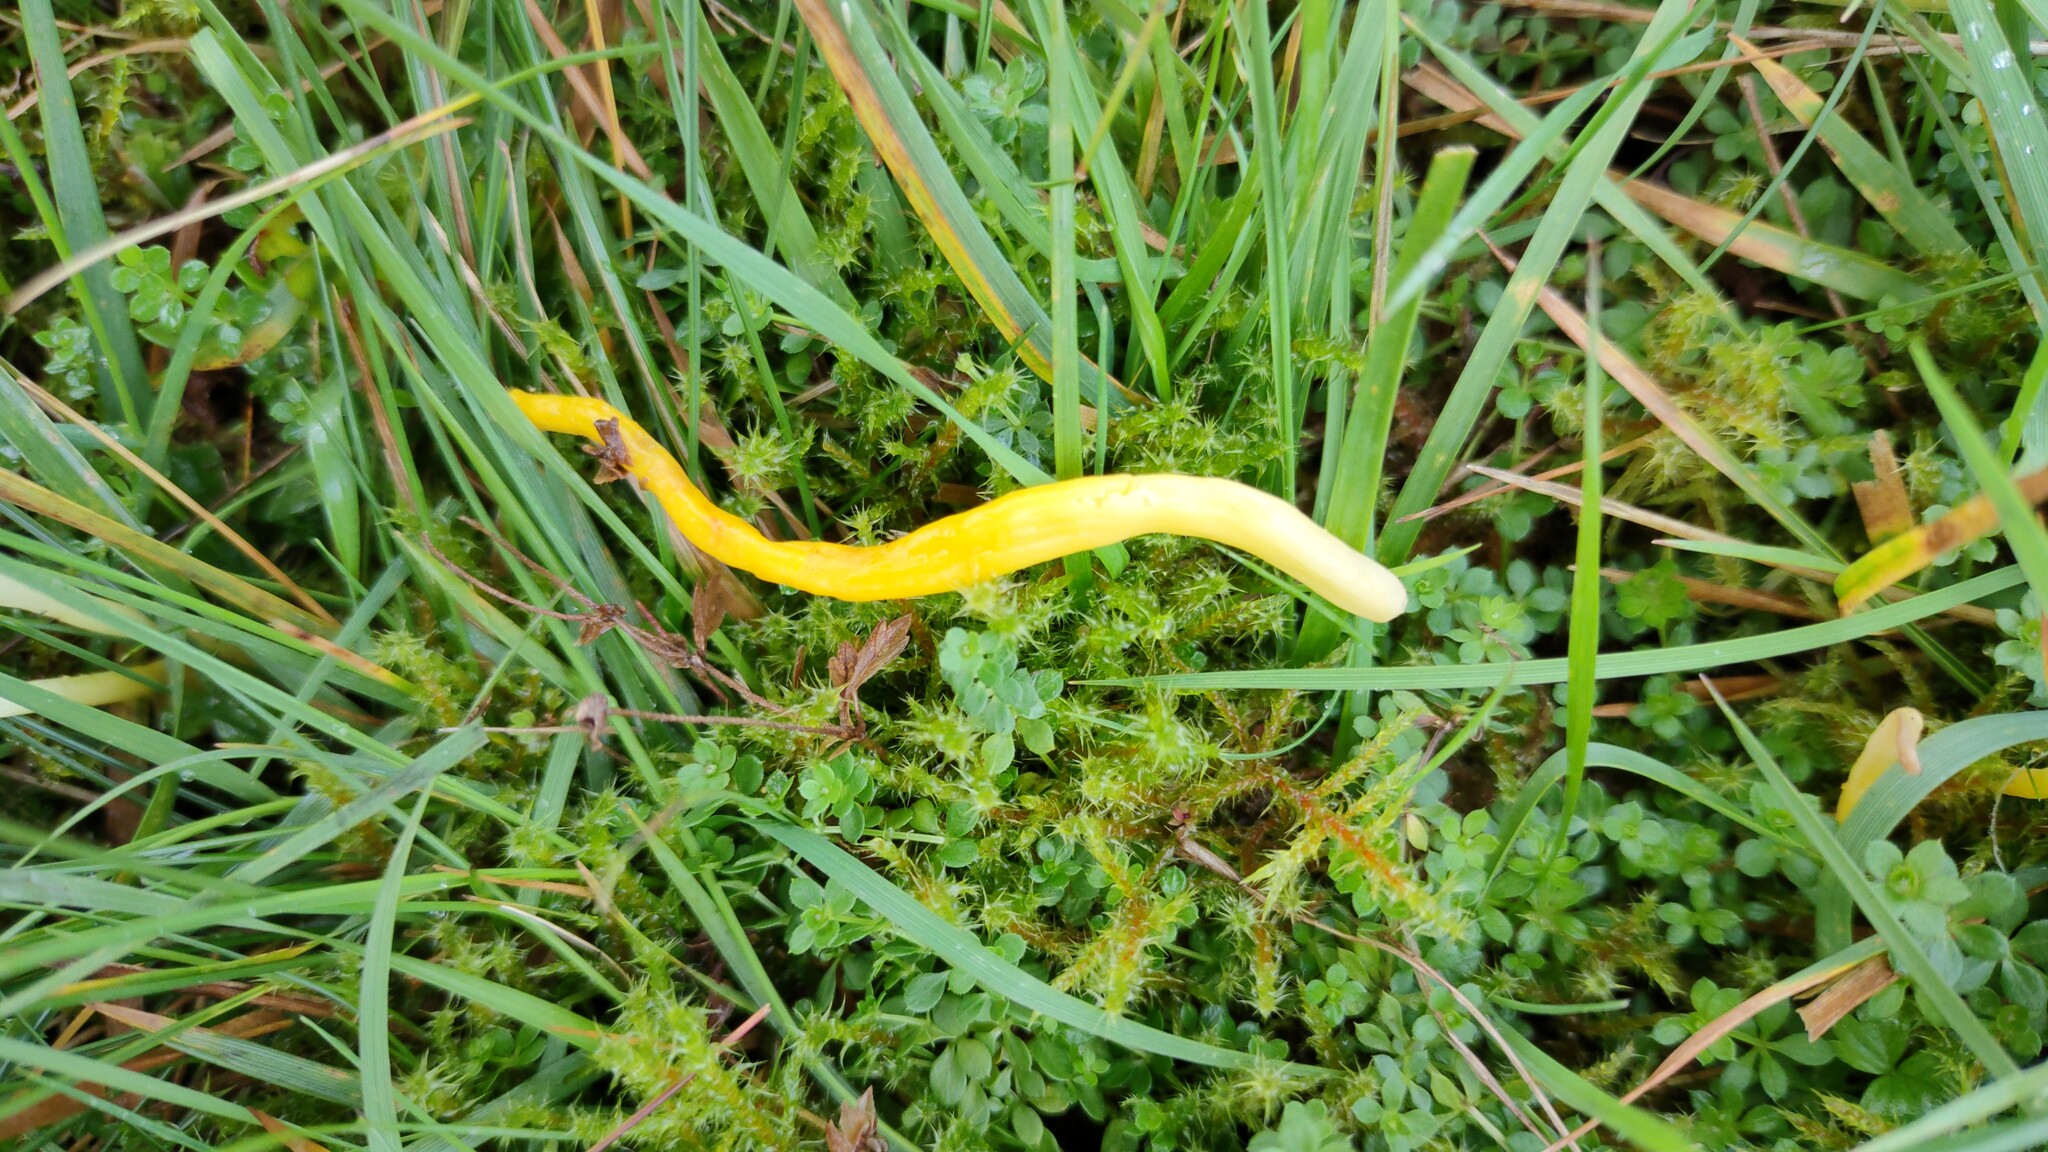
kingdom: Fungi
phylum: Basidiomycota
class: Agaricomycetes
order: Agaricales
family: Clavariaceae
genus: Clavulinopsis
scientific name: Clavulinopsis helvola
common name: Yellow club
